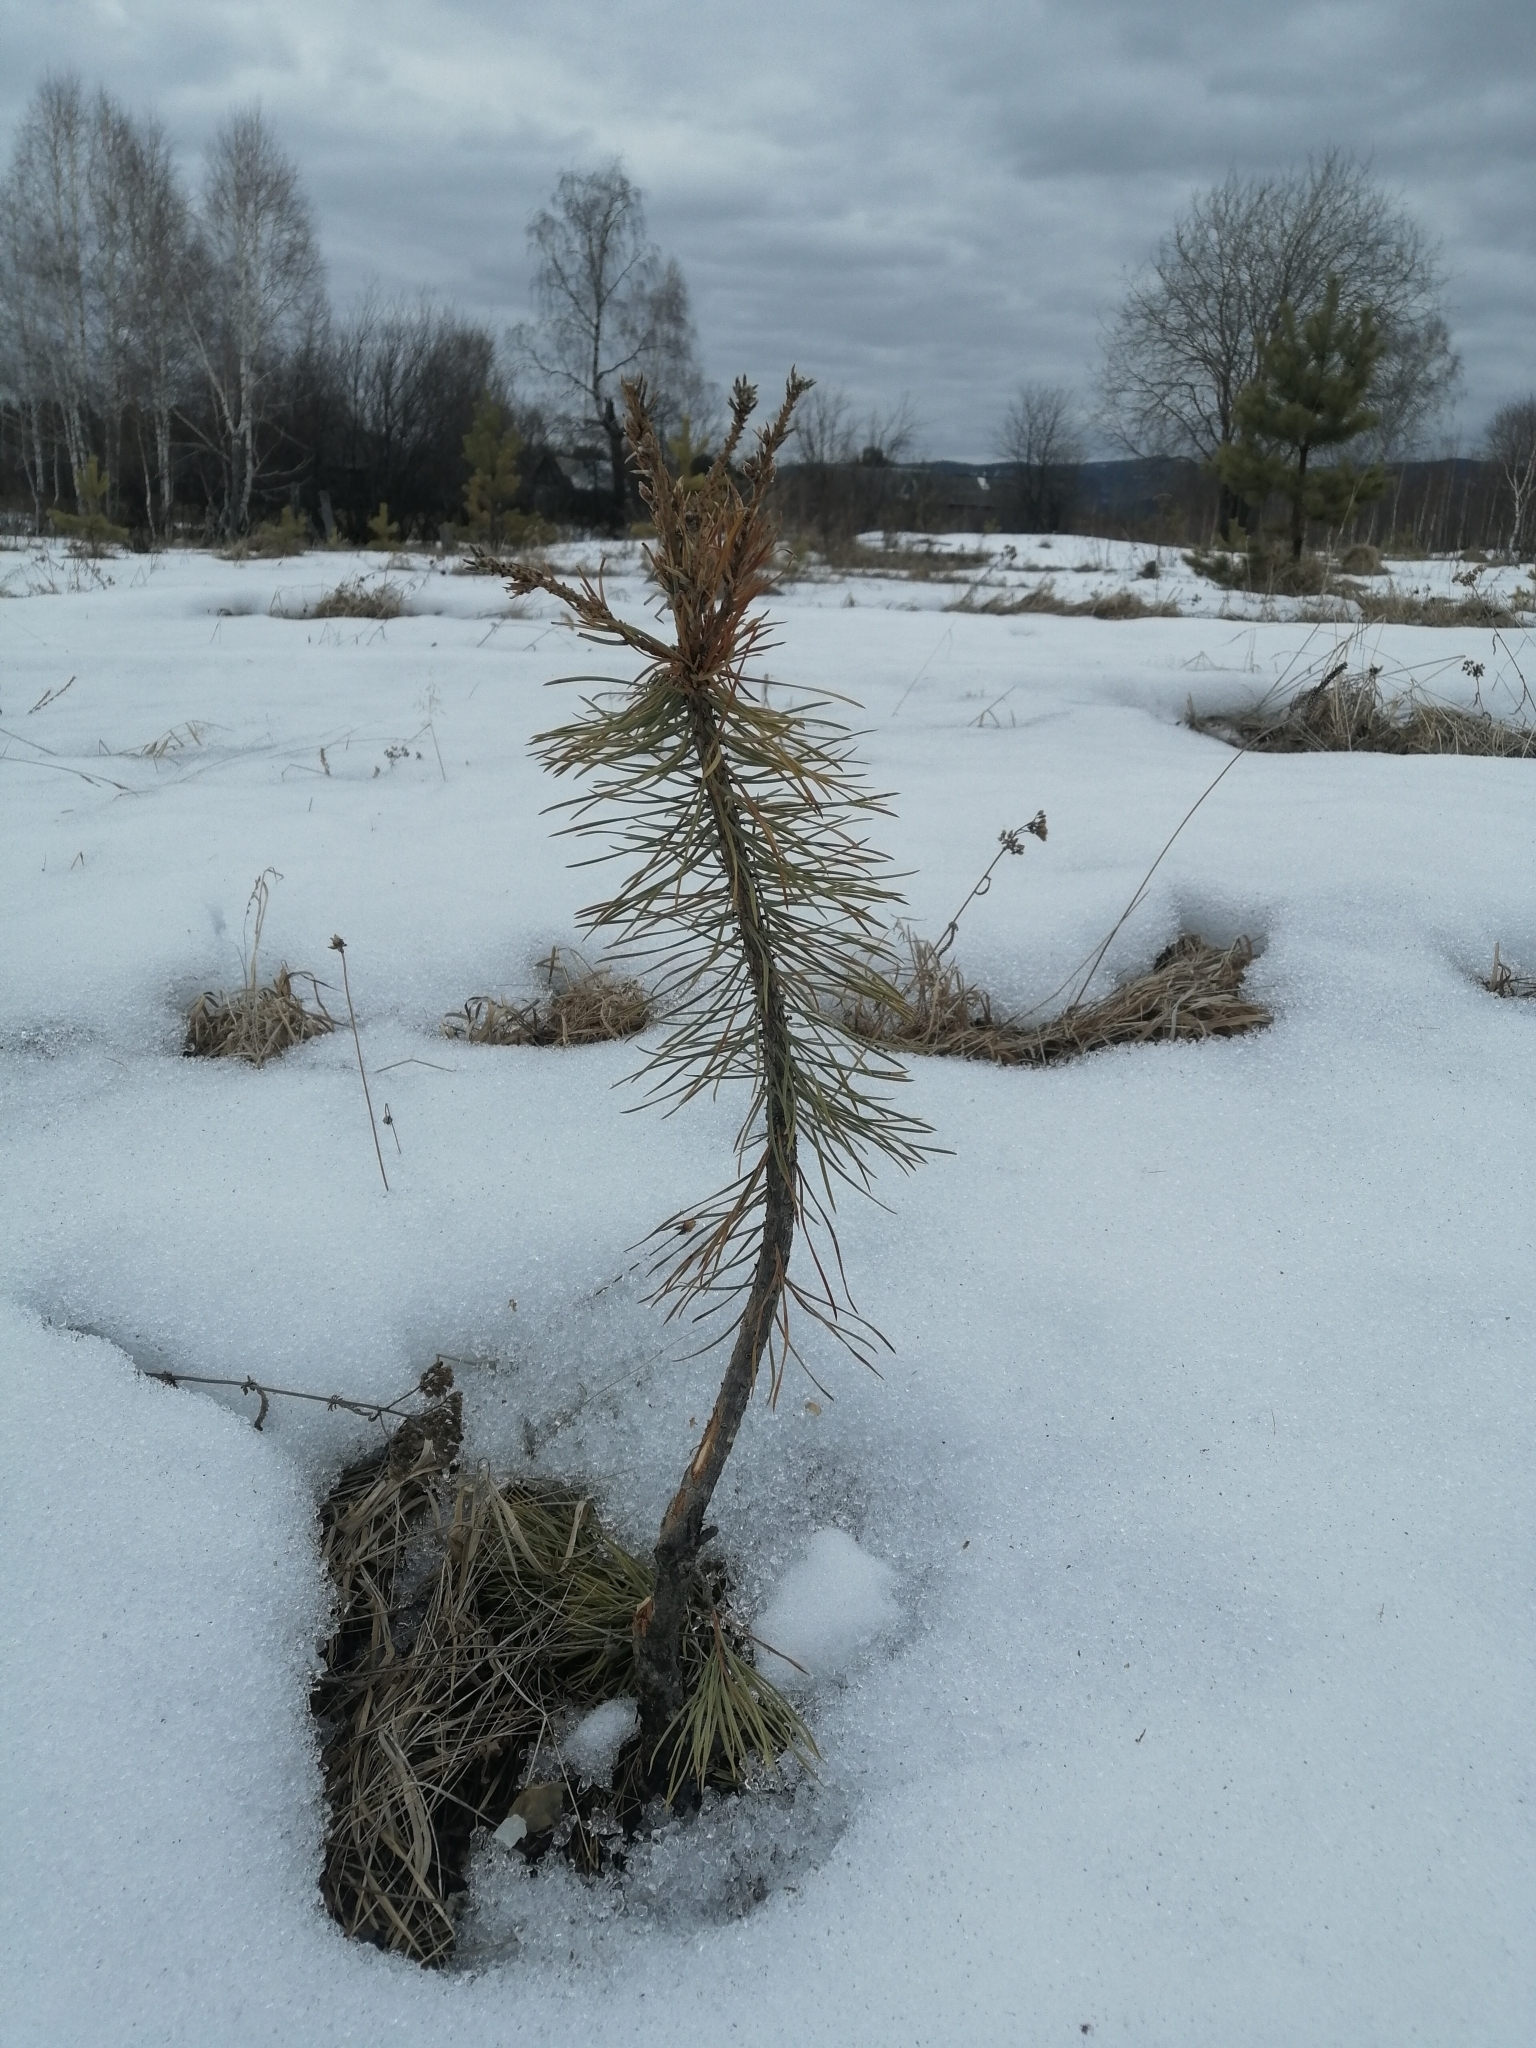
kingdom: Plantae
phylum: Tracheophyta
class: Pinopsida
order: Pinales
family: Pinaceae
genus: Pinus
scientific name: Pinus sylvestris
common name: Scots pine
